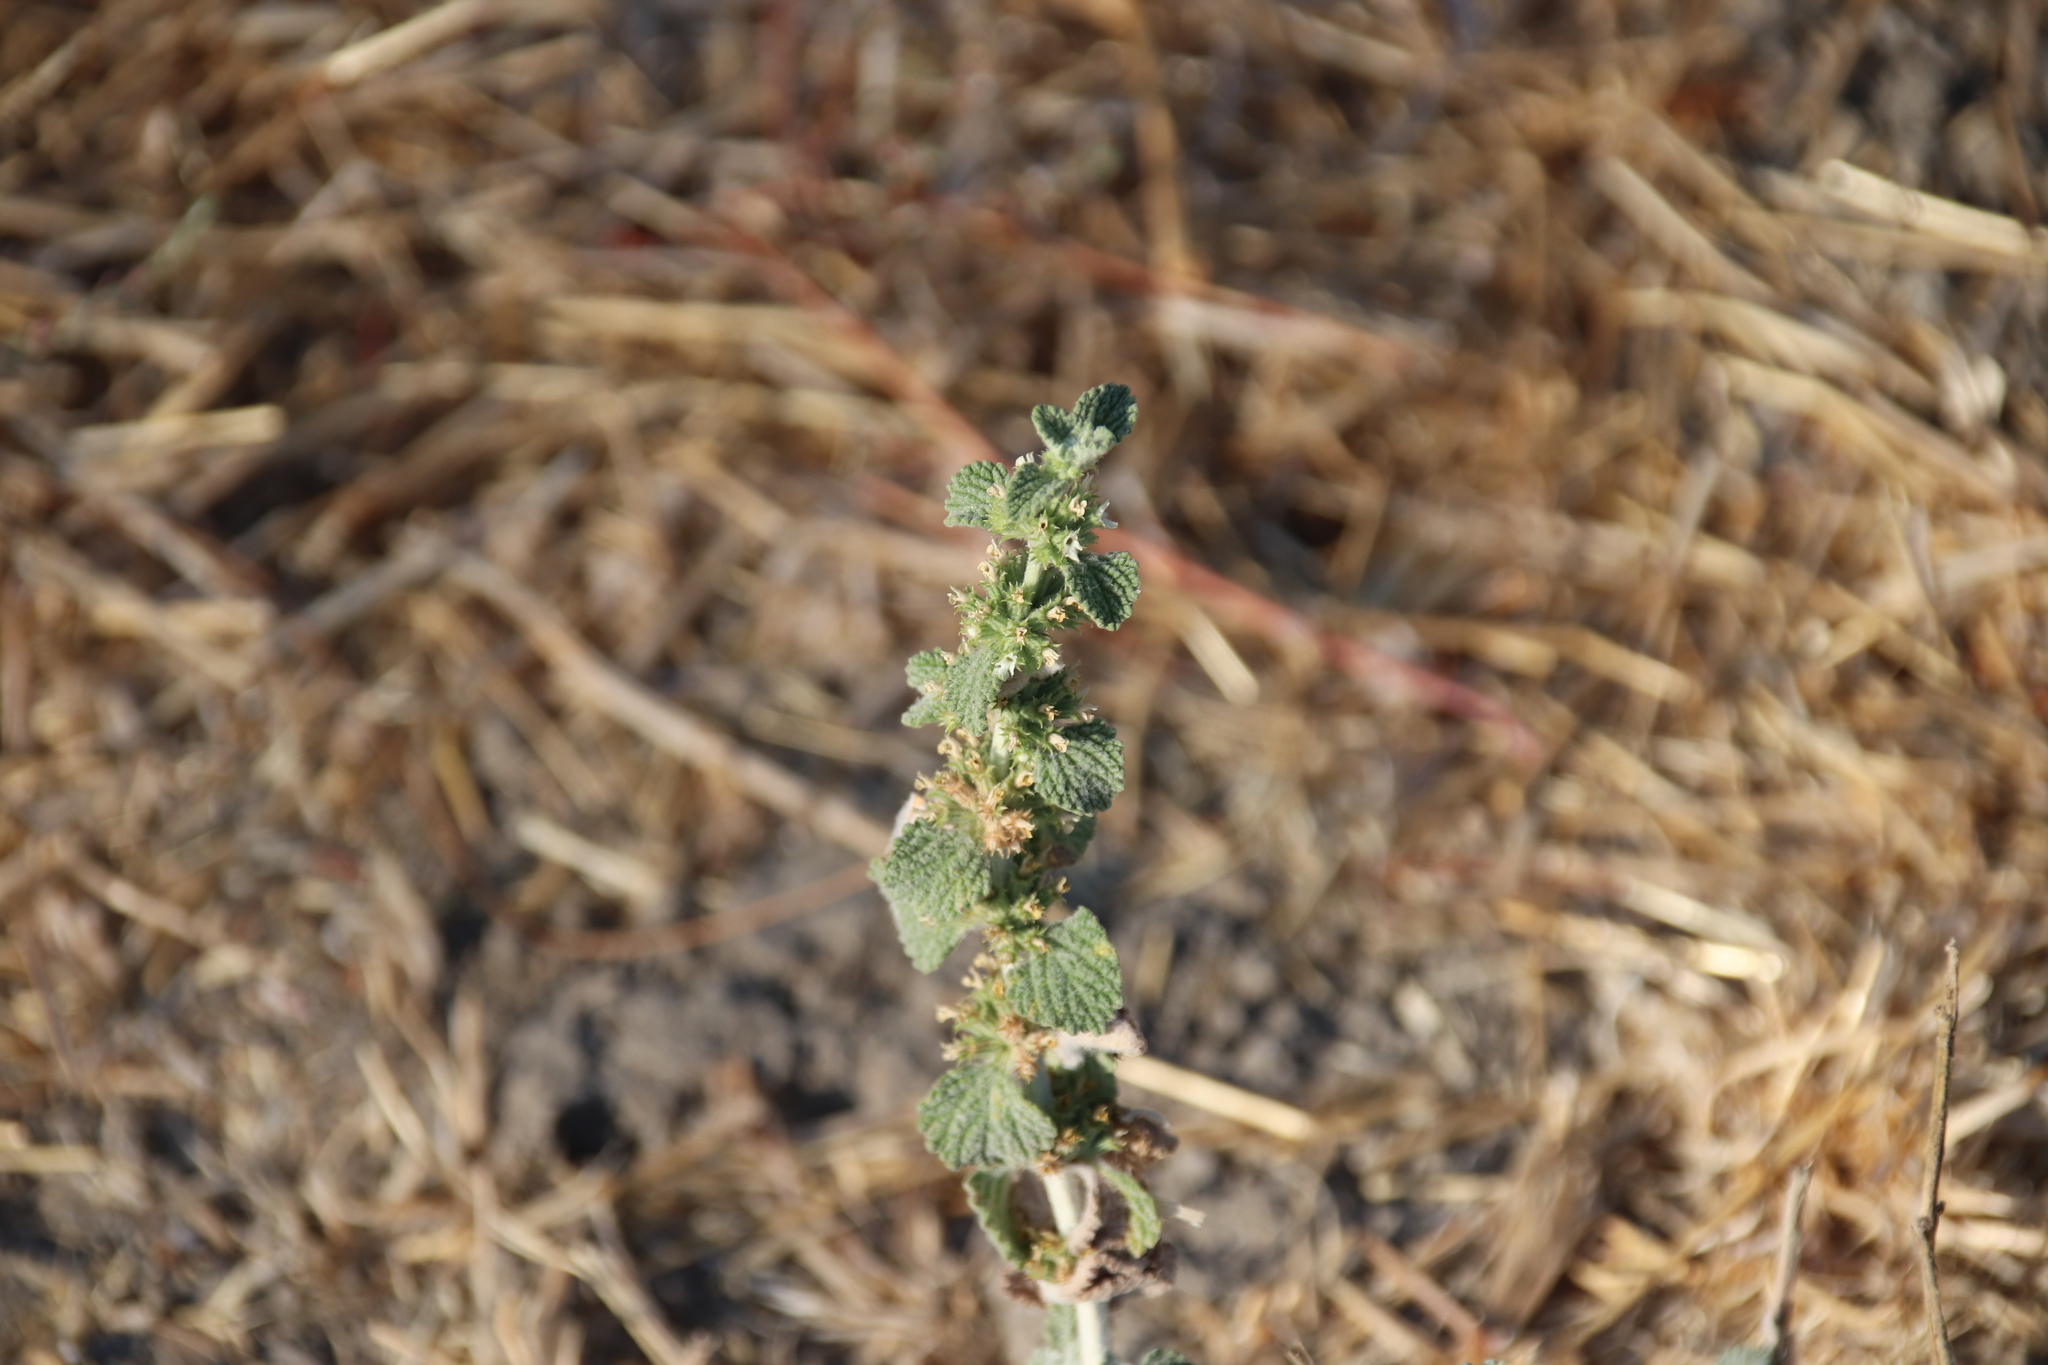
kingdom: Plantae
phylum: Tracheophyta
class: Magnoliopsida
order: Lamiales
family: Lamiaceae
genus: Marrubium
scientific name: Marrubium vulgare
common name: Horehound
